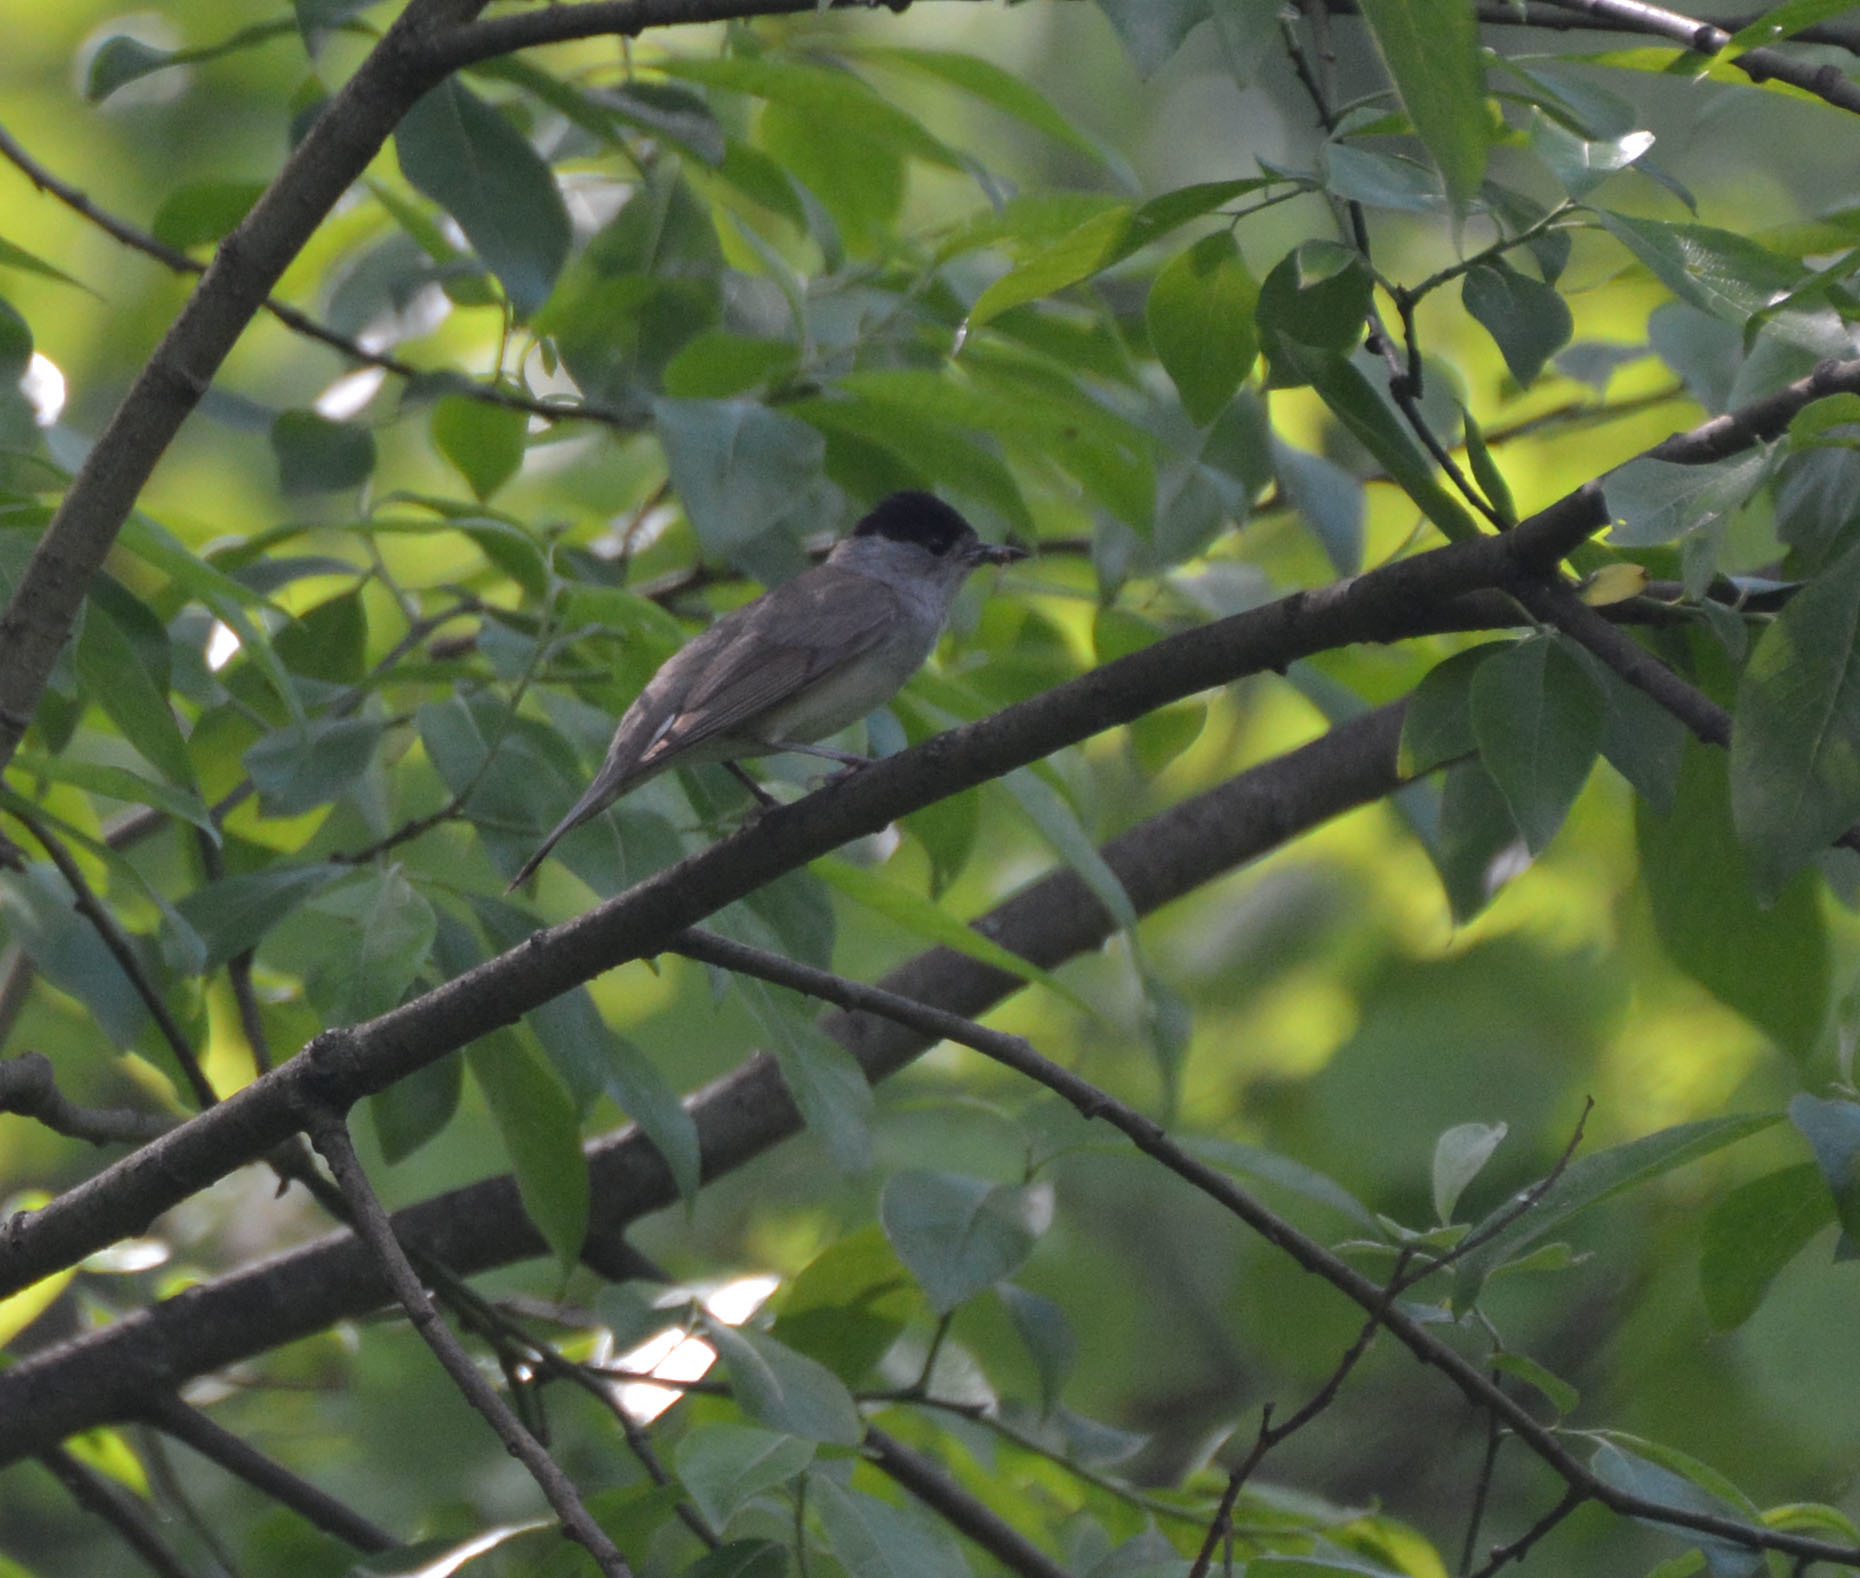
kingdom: Animalia
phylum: Chordata
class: Aves
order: Passeriformes
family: Sylviidae
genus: Sylvia
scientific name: Sylvia atricapilla
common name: Eurasian blackcap
